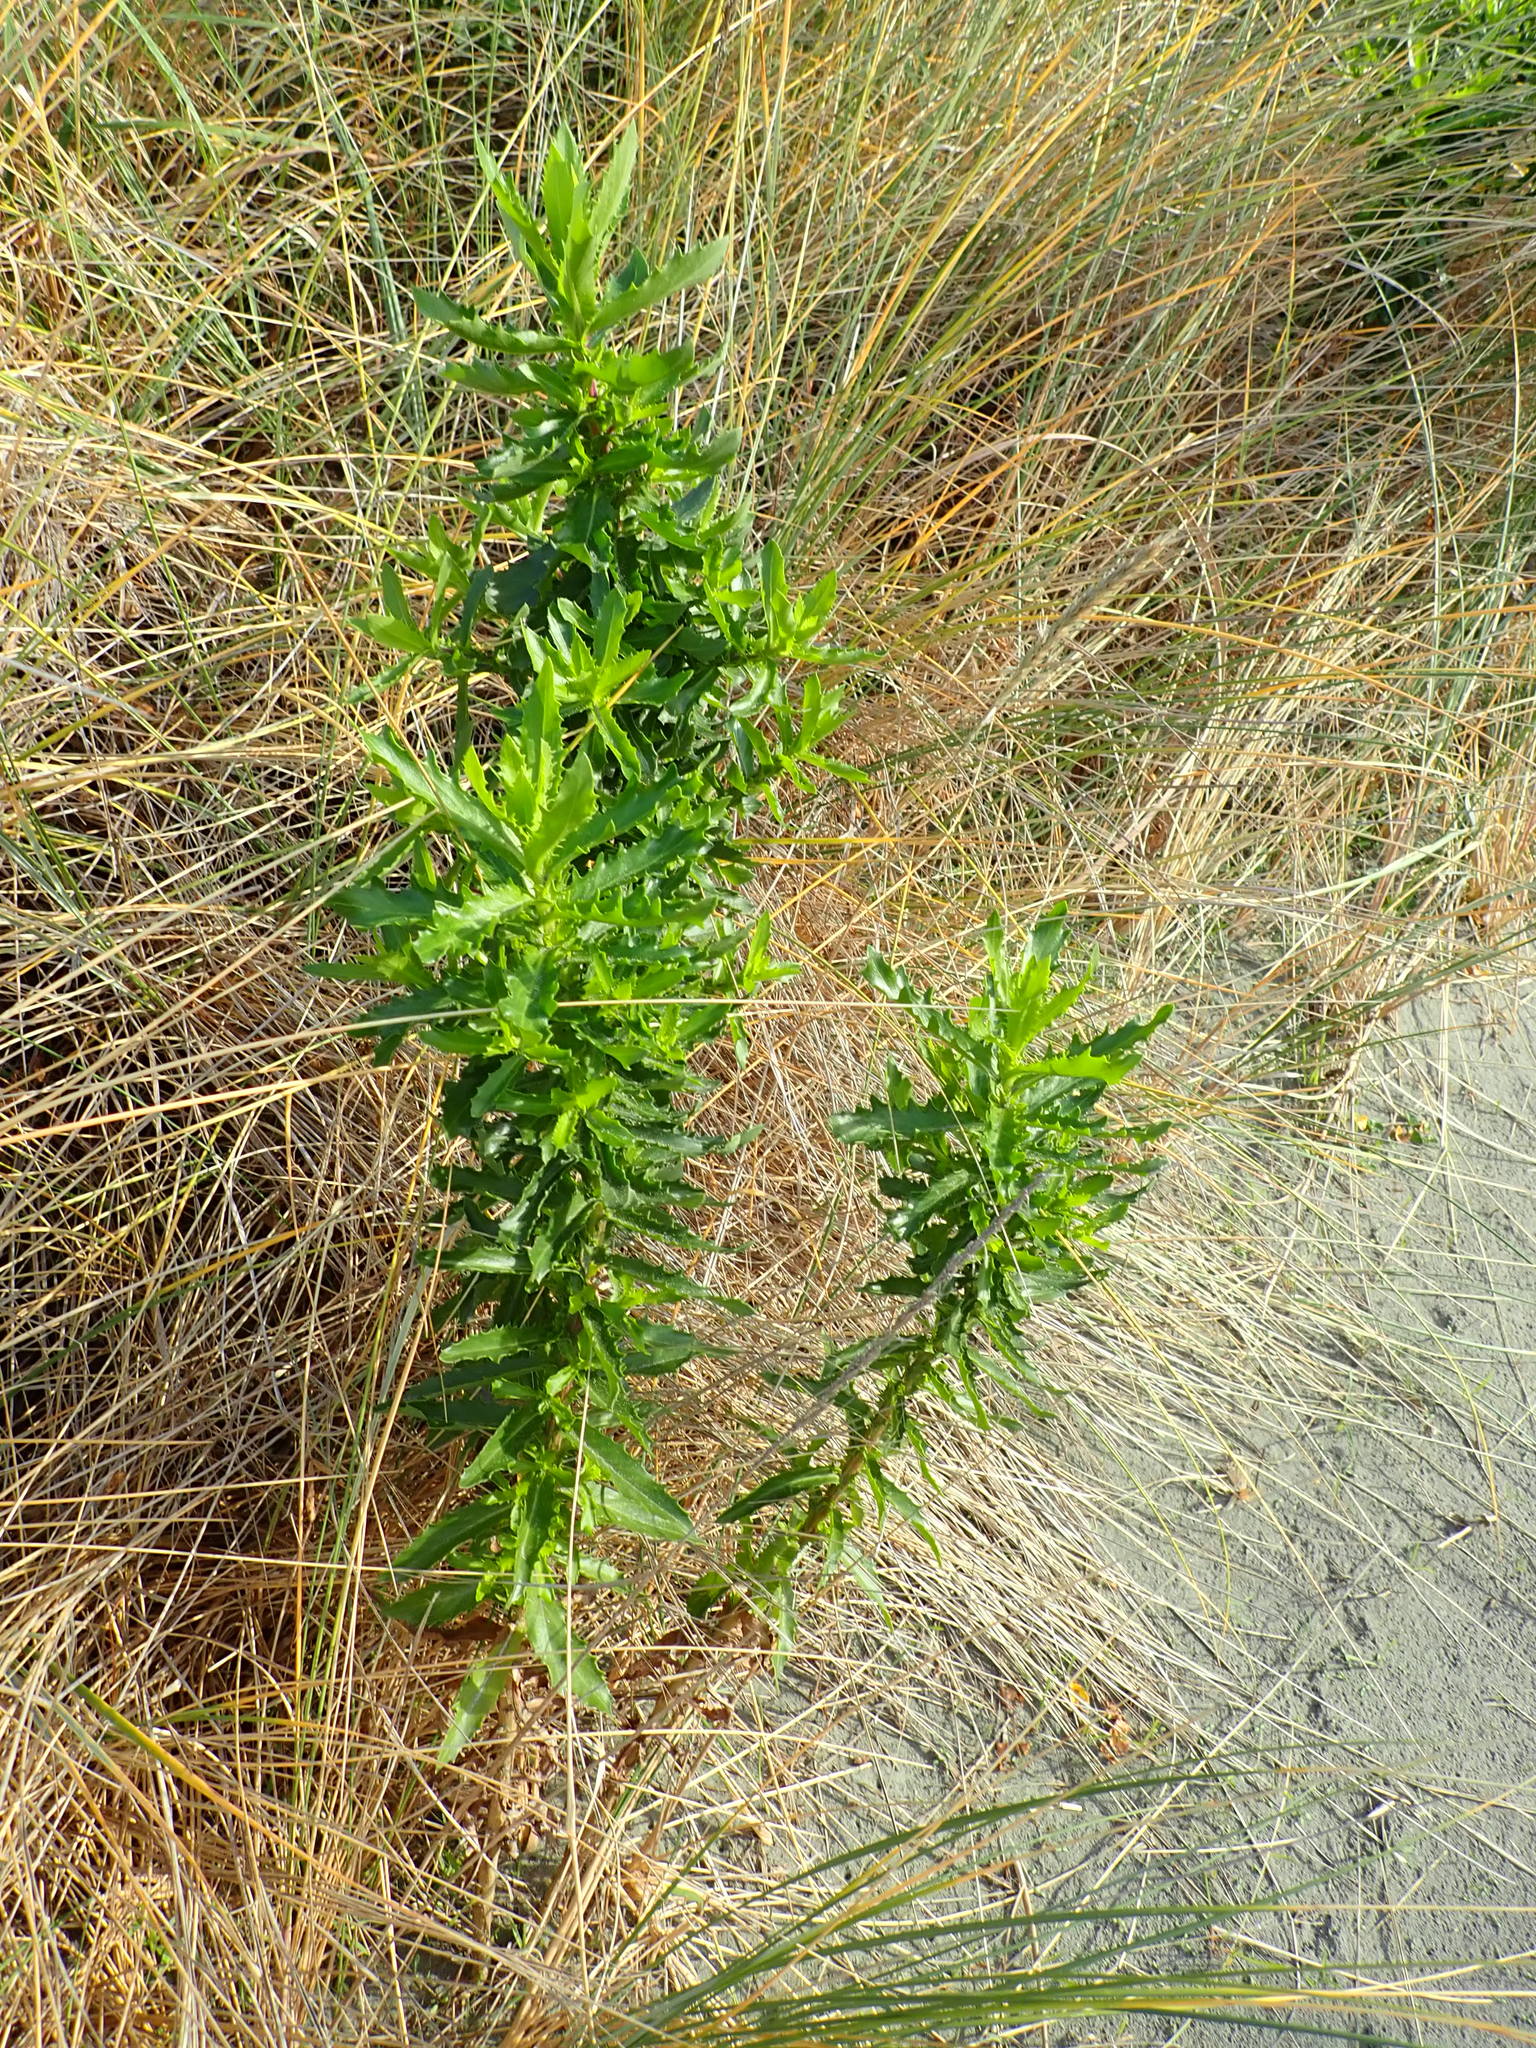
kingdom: Plantae
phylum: Tracheophyta
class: Magnoliopsida
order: Asterales
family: Asteraceae
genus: Senecio
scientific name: Senecio glastifolius
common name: Woad-leaved ragwort
